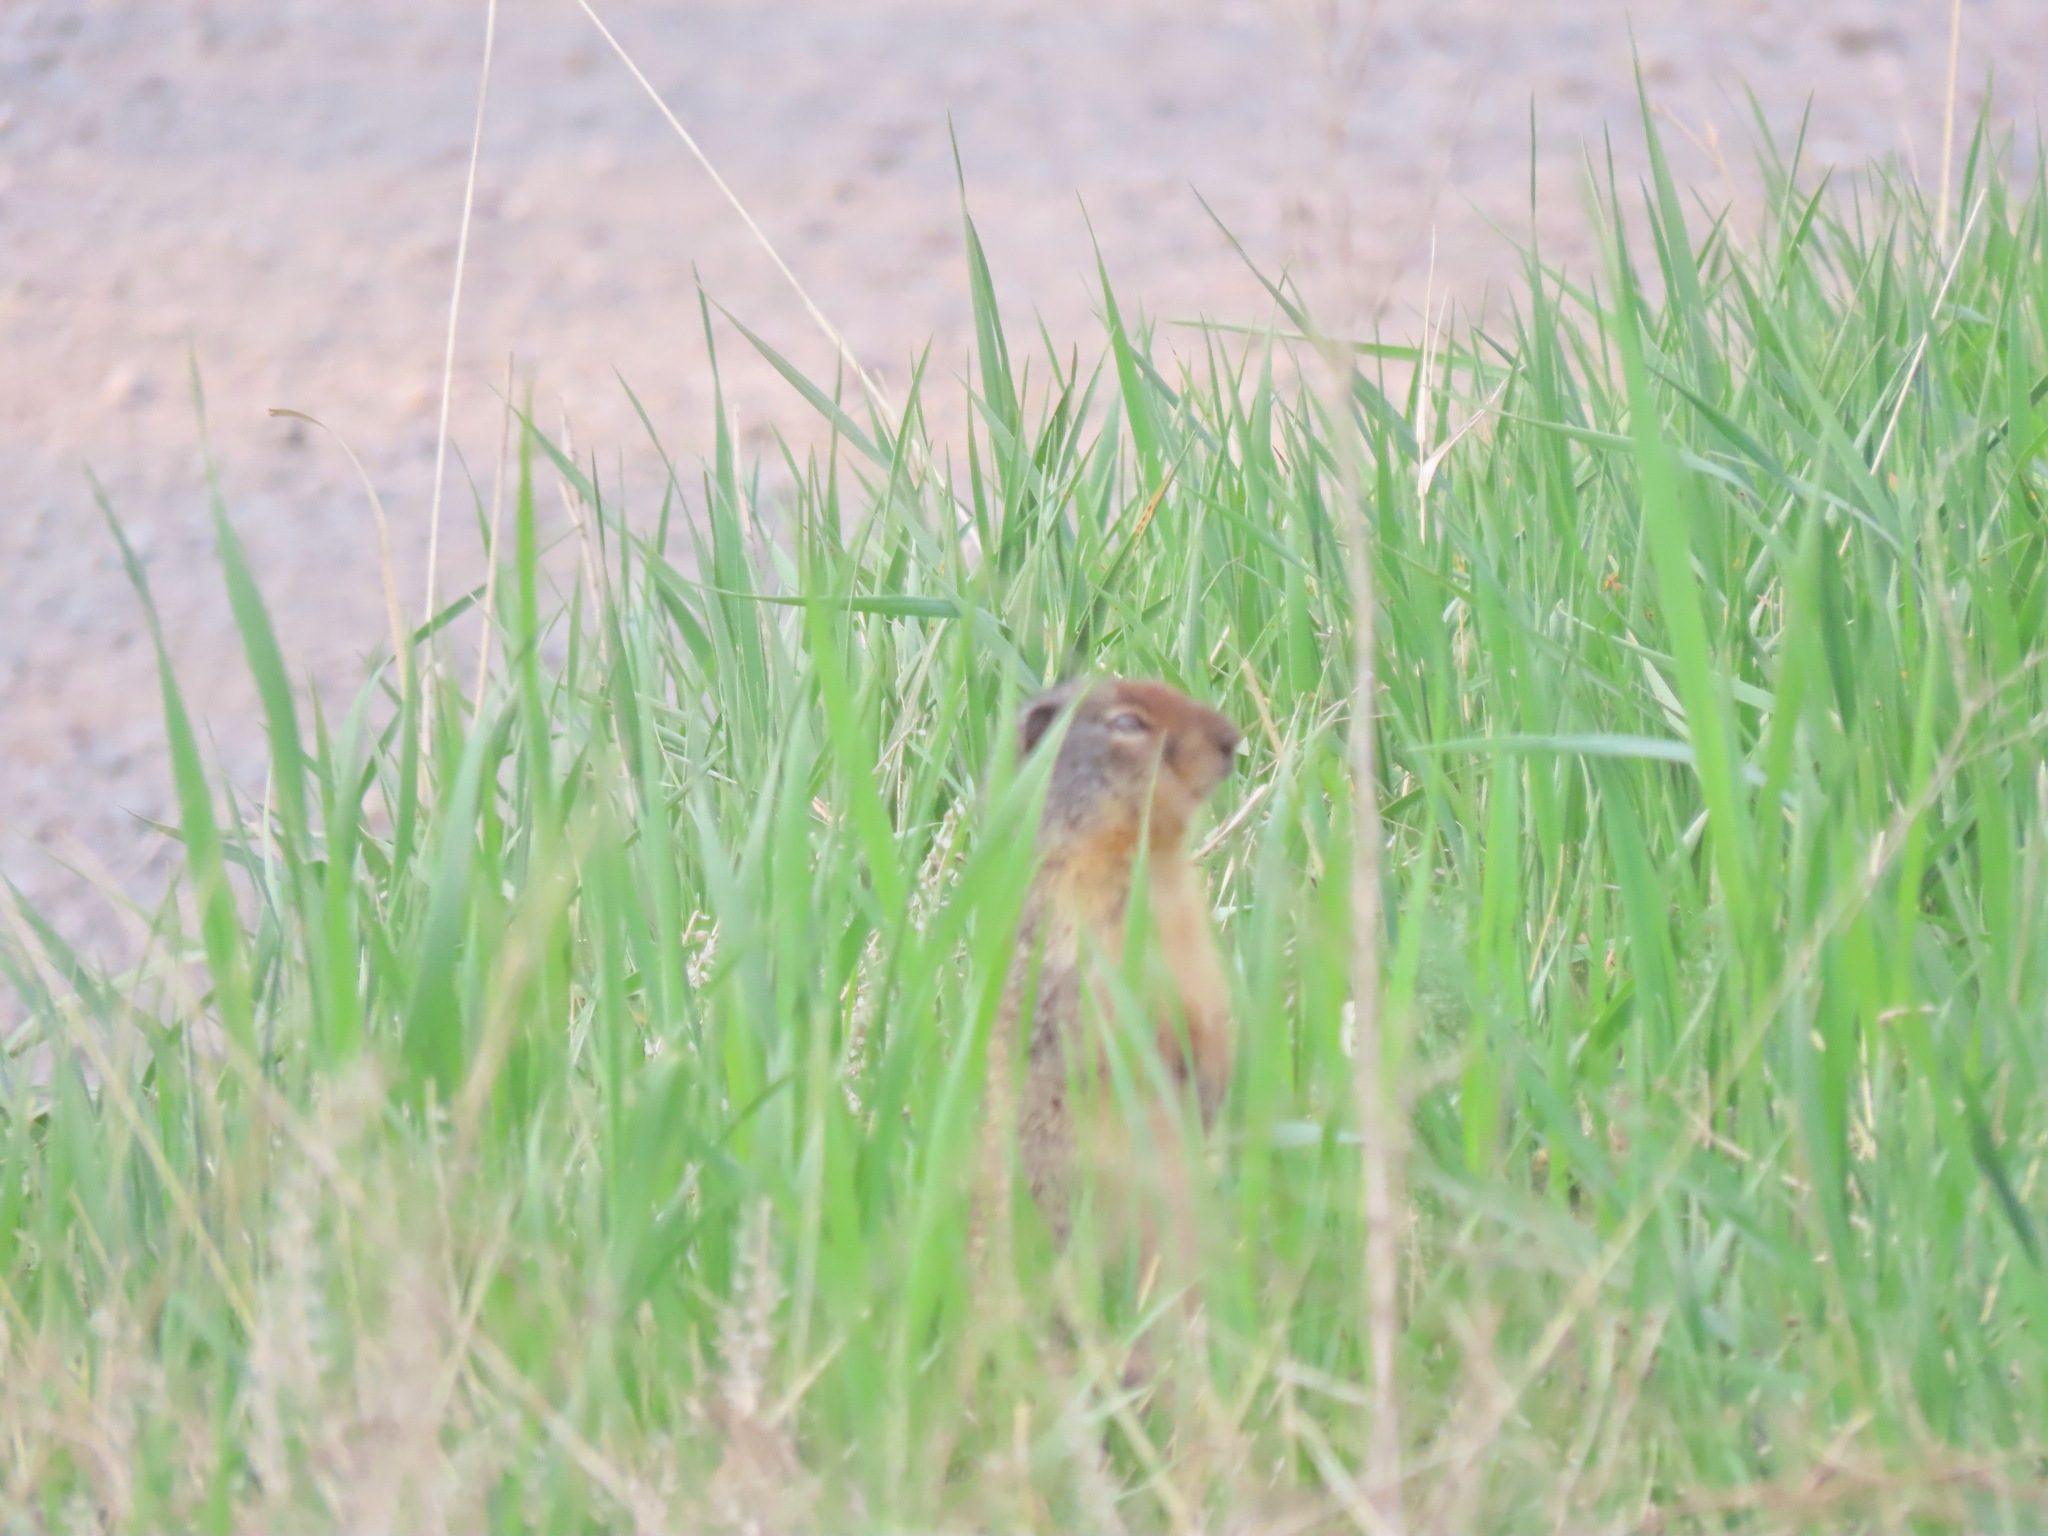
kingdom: Animalia
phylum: Chordata
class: Mammalia
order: Rodentia
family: Sciuridae
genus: Urocitellus
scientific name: Urocitellus columbianus
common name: Columbian ground squirrel
